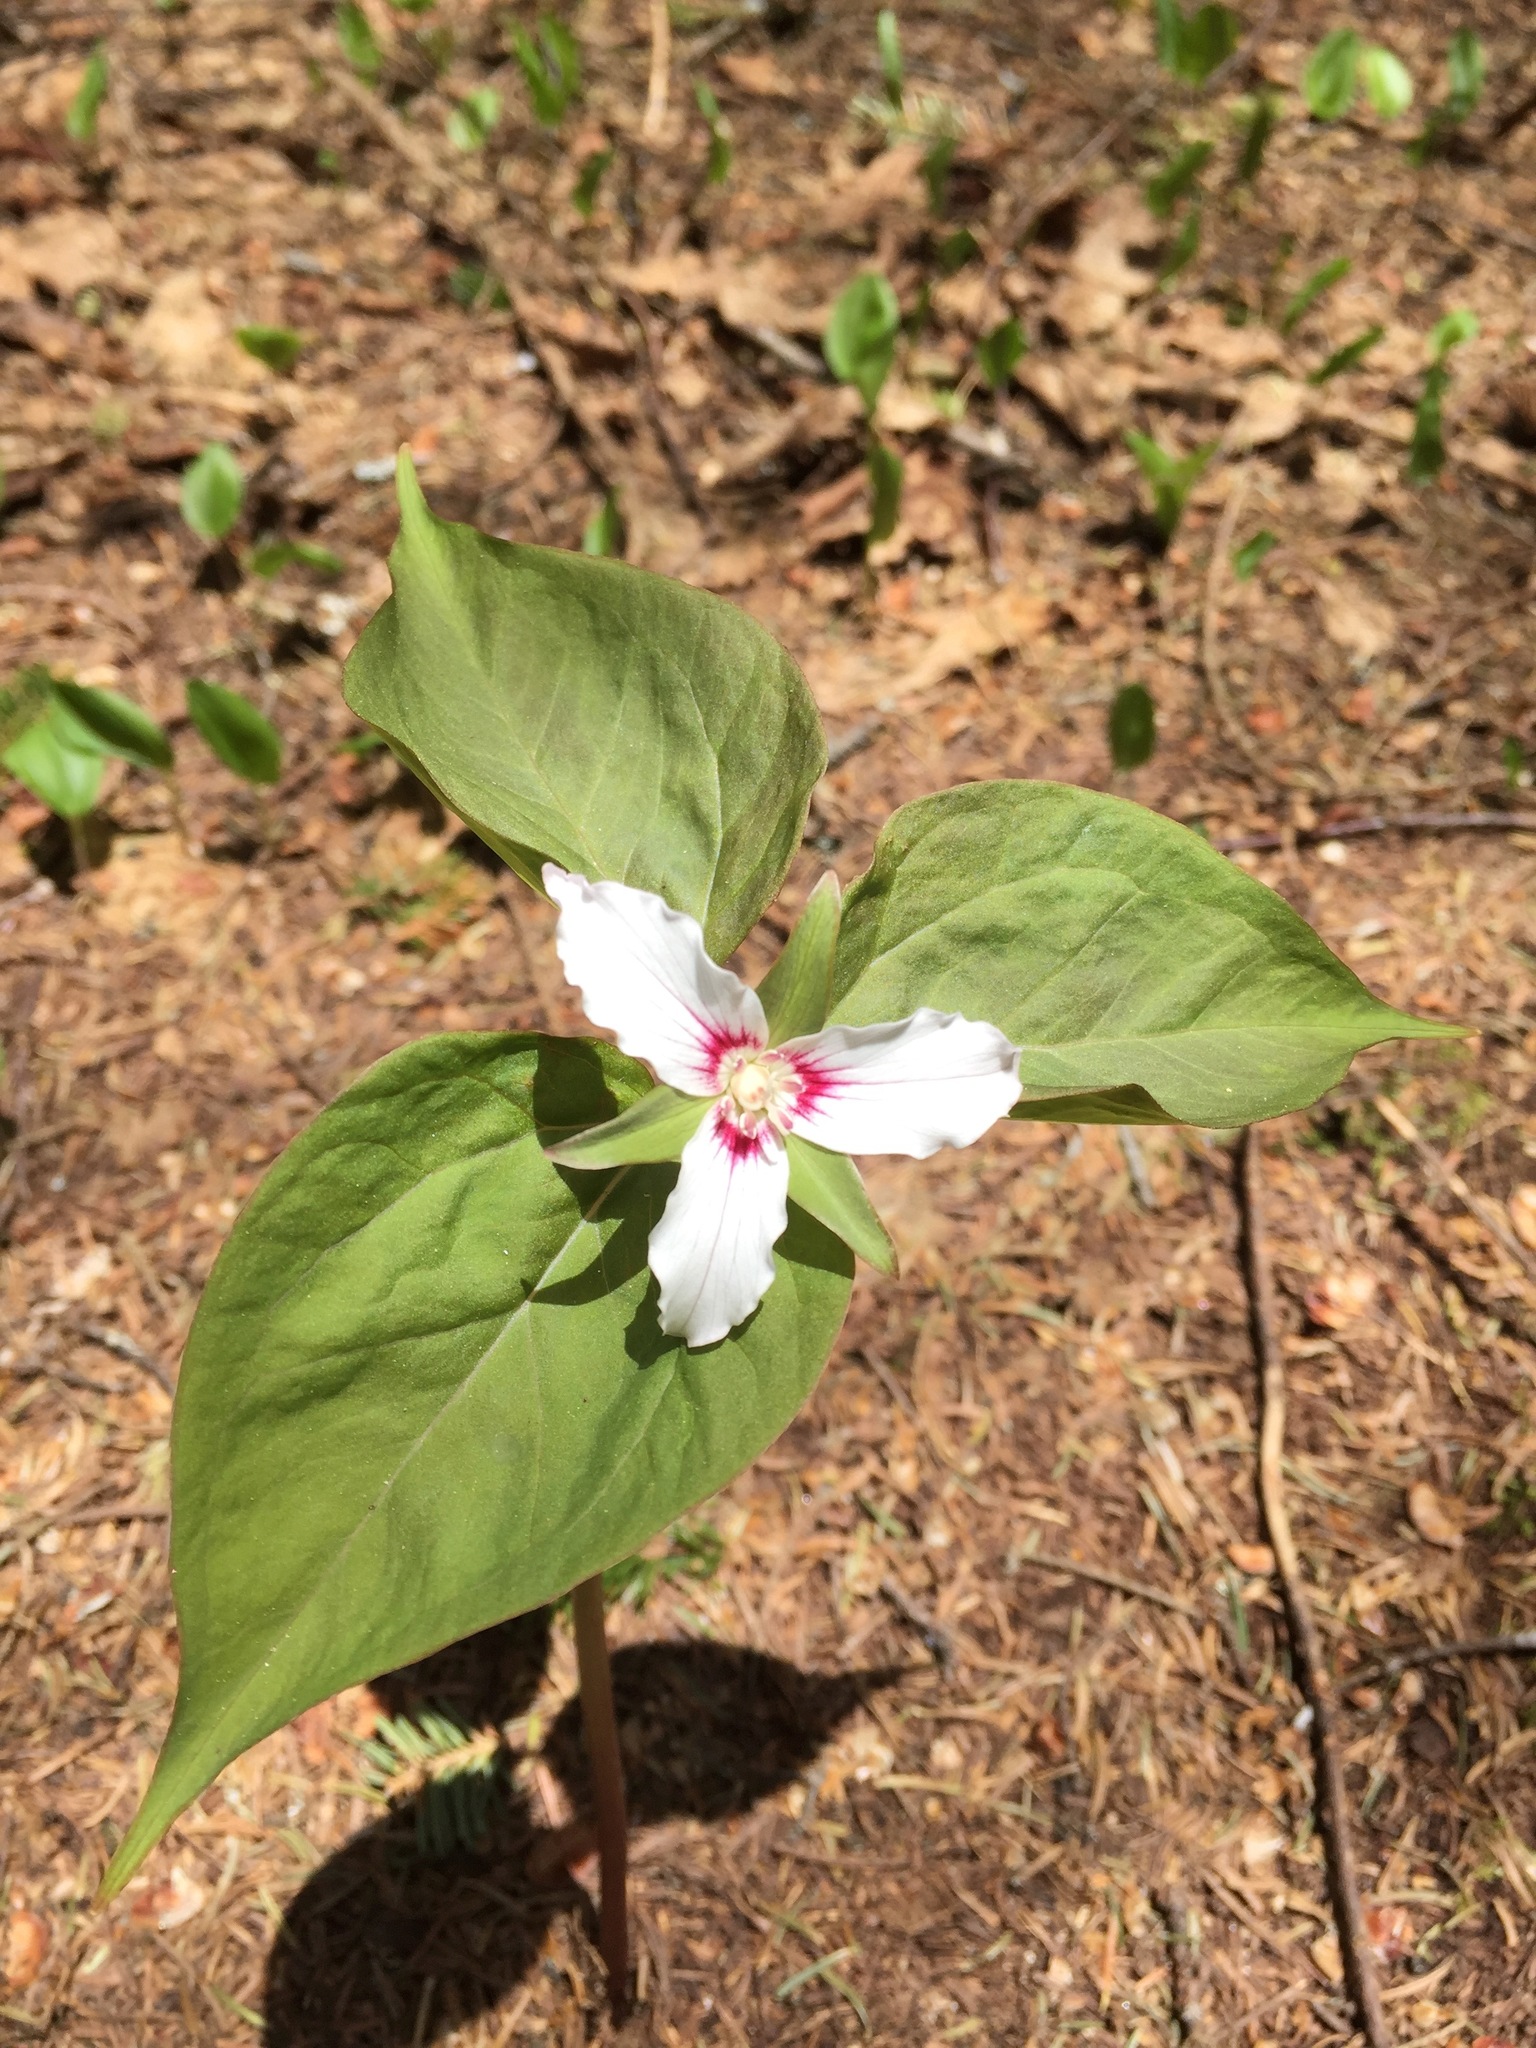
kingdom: Plantae
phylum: Tracheophyta
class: Liliopsida
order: Liliales
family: Melanthiaceae
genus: Trillium
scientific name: Trillium undulatum
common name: Paint trillium
